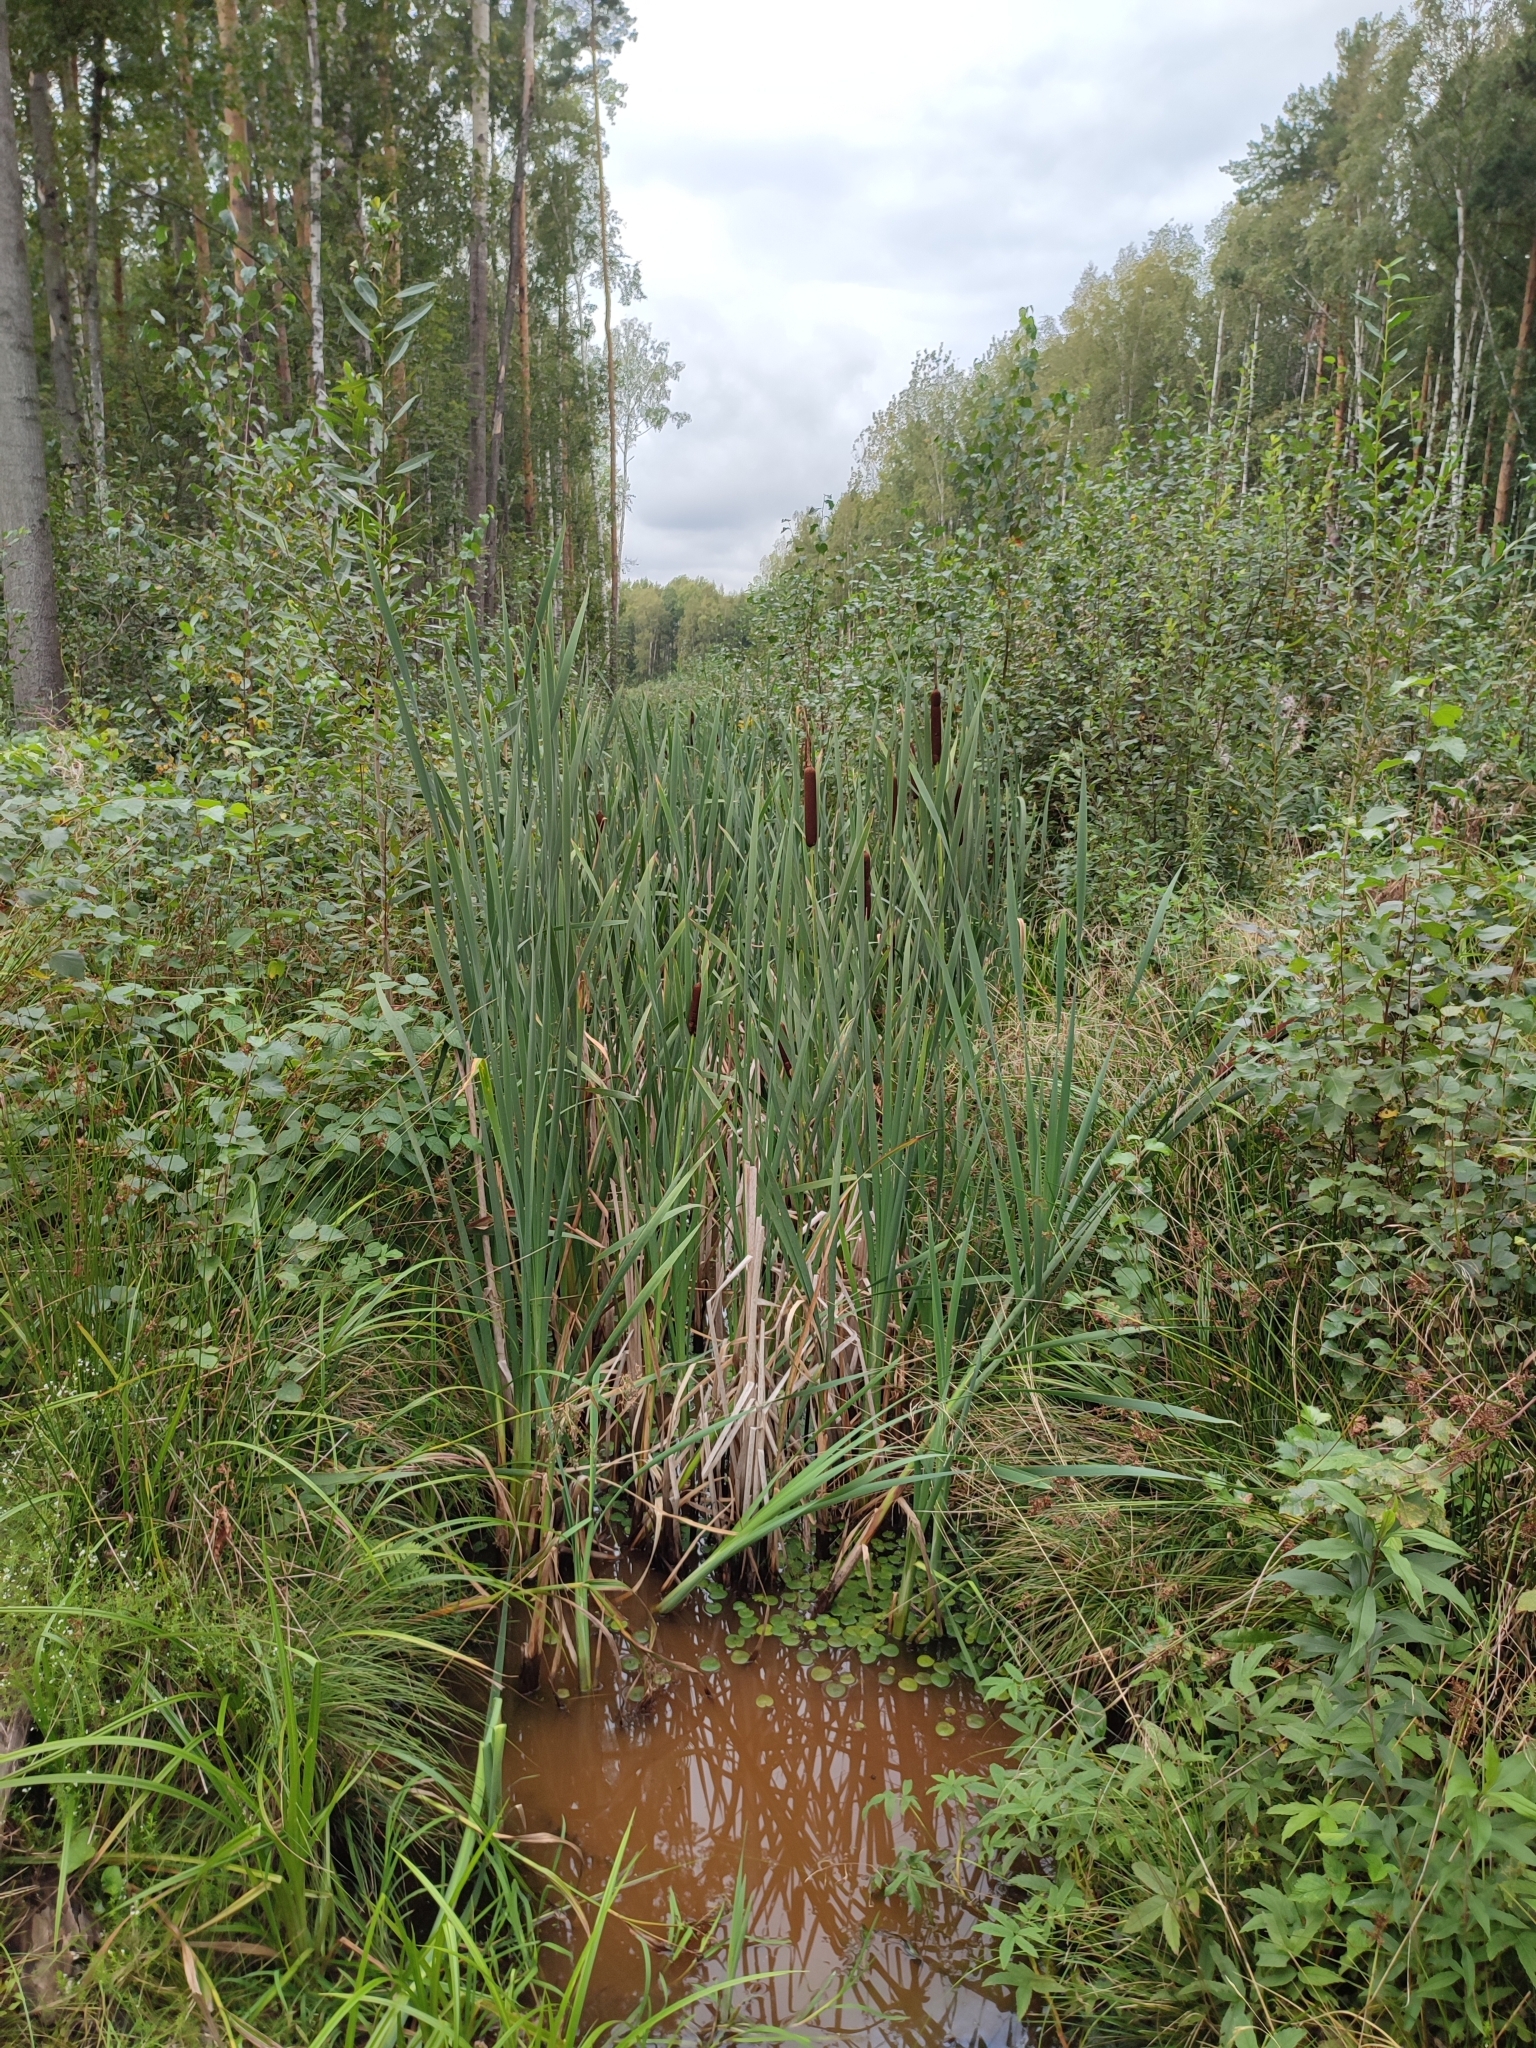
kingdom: Plantae
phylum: Tracheophyta
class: Liliopsida
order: Poales
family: Typhaceae
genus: Typha
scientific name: Typha latifolia
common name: Broadleaf cattail
